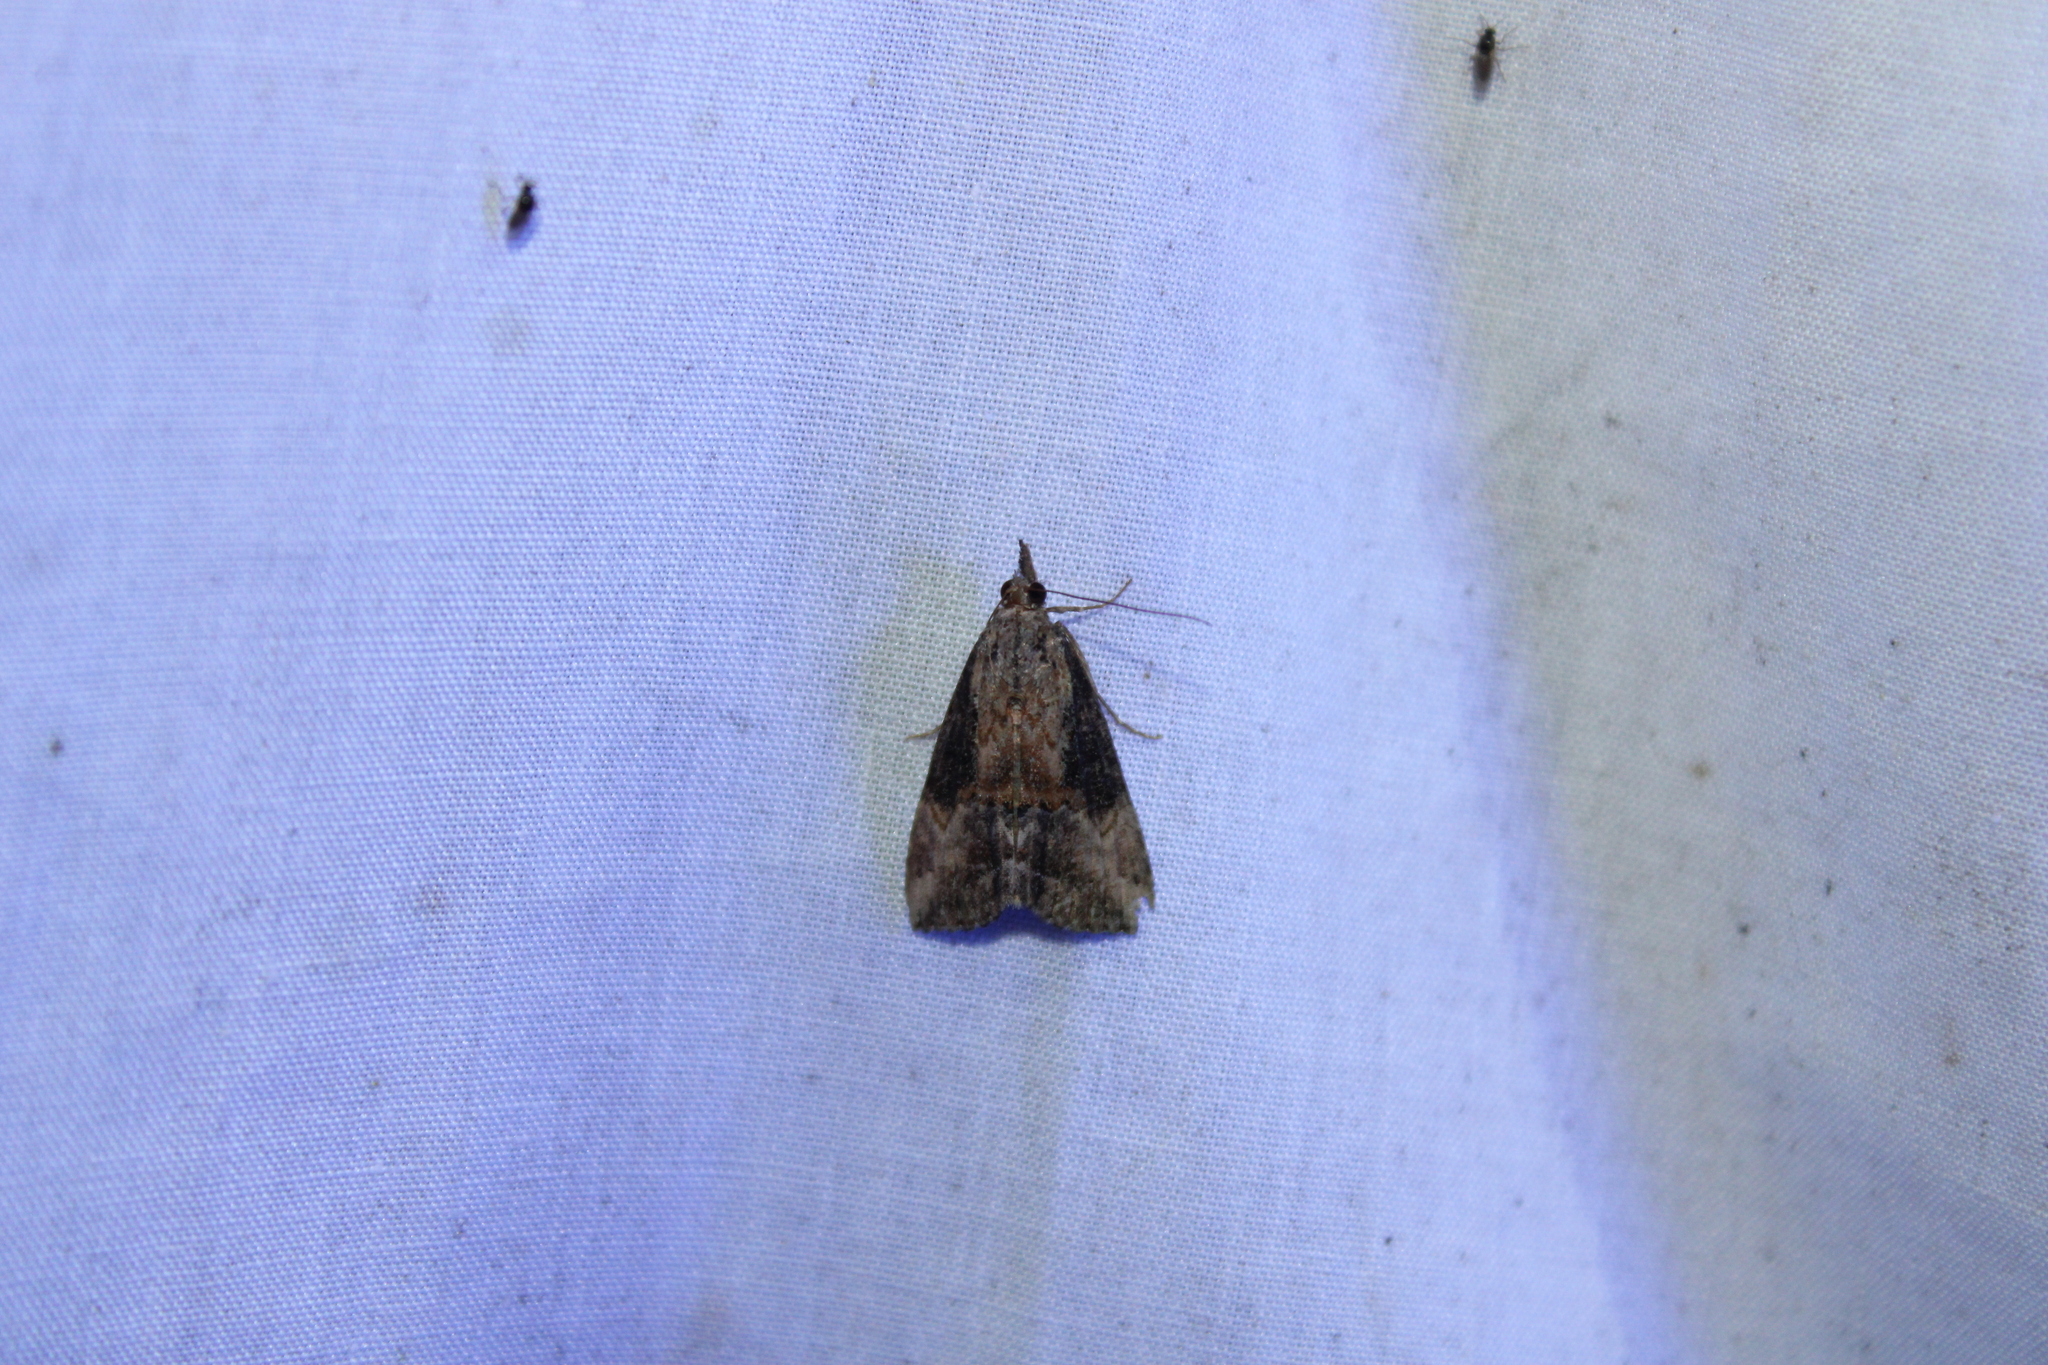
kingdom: Animalia
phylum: Arthropoda
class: Insecta
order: Lepidoptera
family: Erebidae
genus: Hypena
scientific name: Hypena scabra
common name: Green cloverworm
